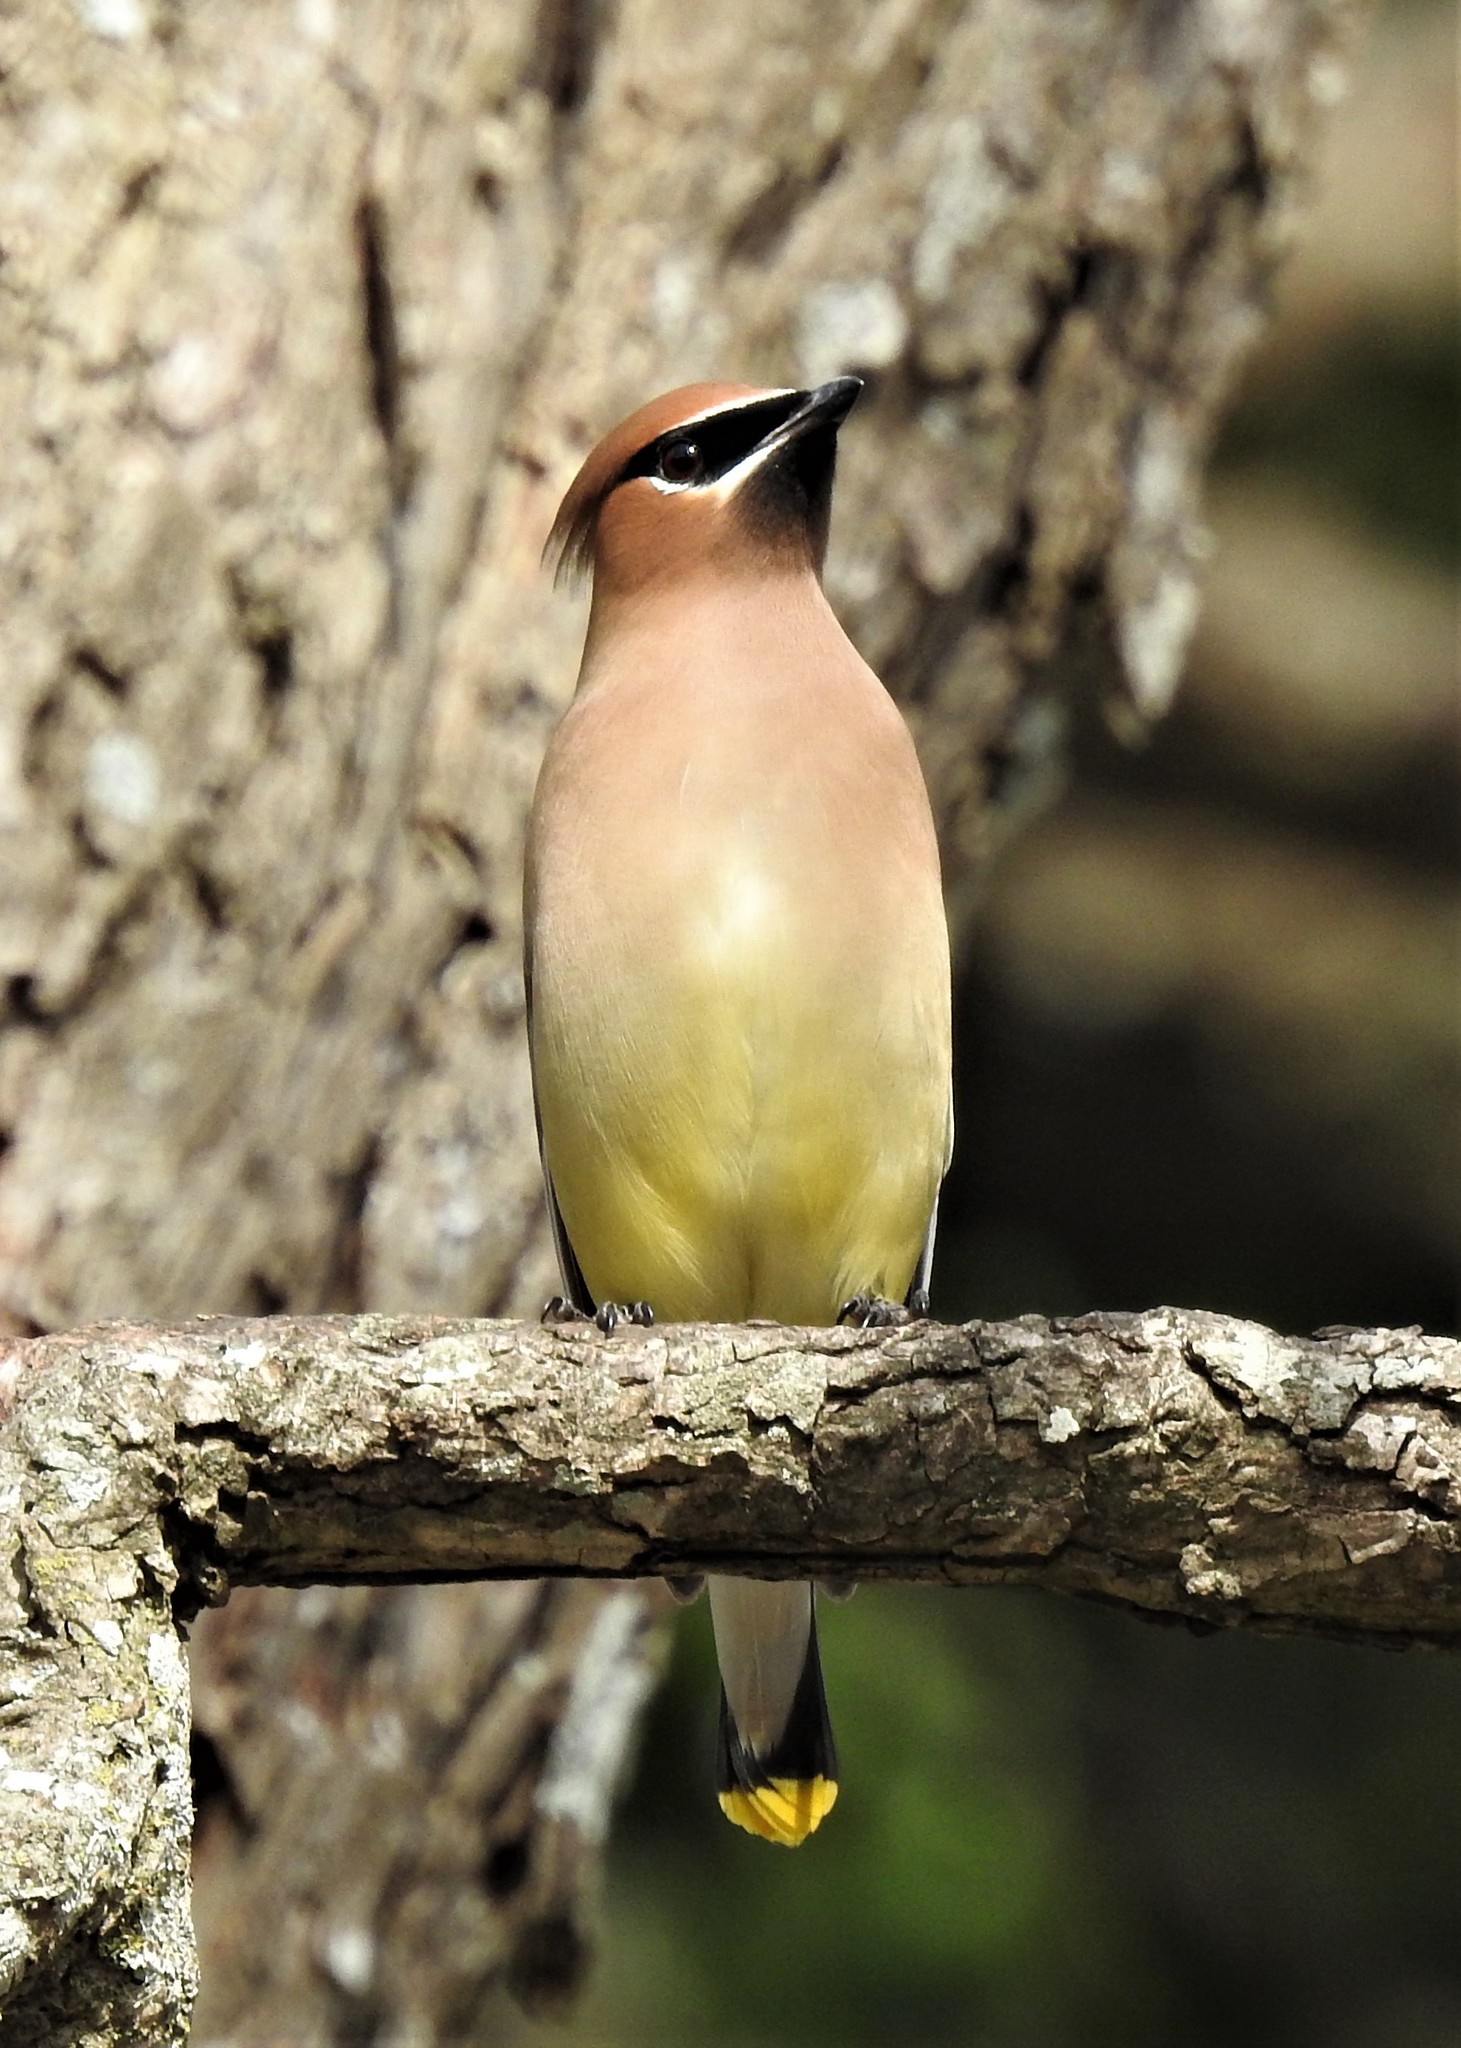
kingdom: Animalia
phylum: Chordata
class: Aves
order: Passeriformes
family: Bombycillidae
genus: Bombycilla
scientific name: Bombycilla cedrorum
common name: Cedar waxwing
